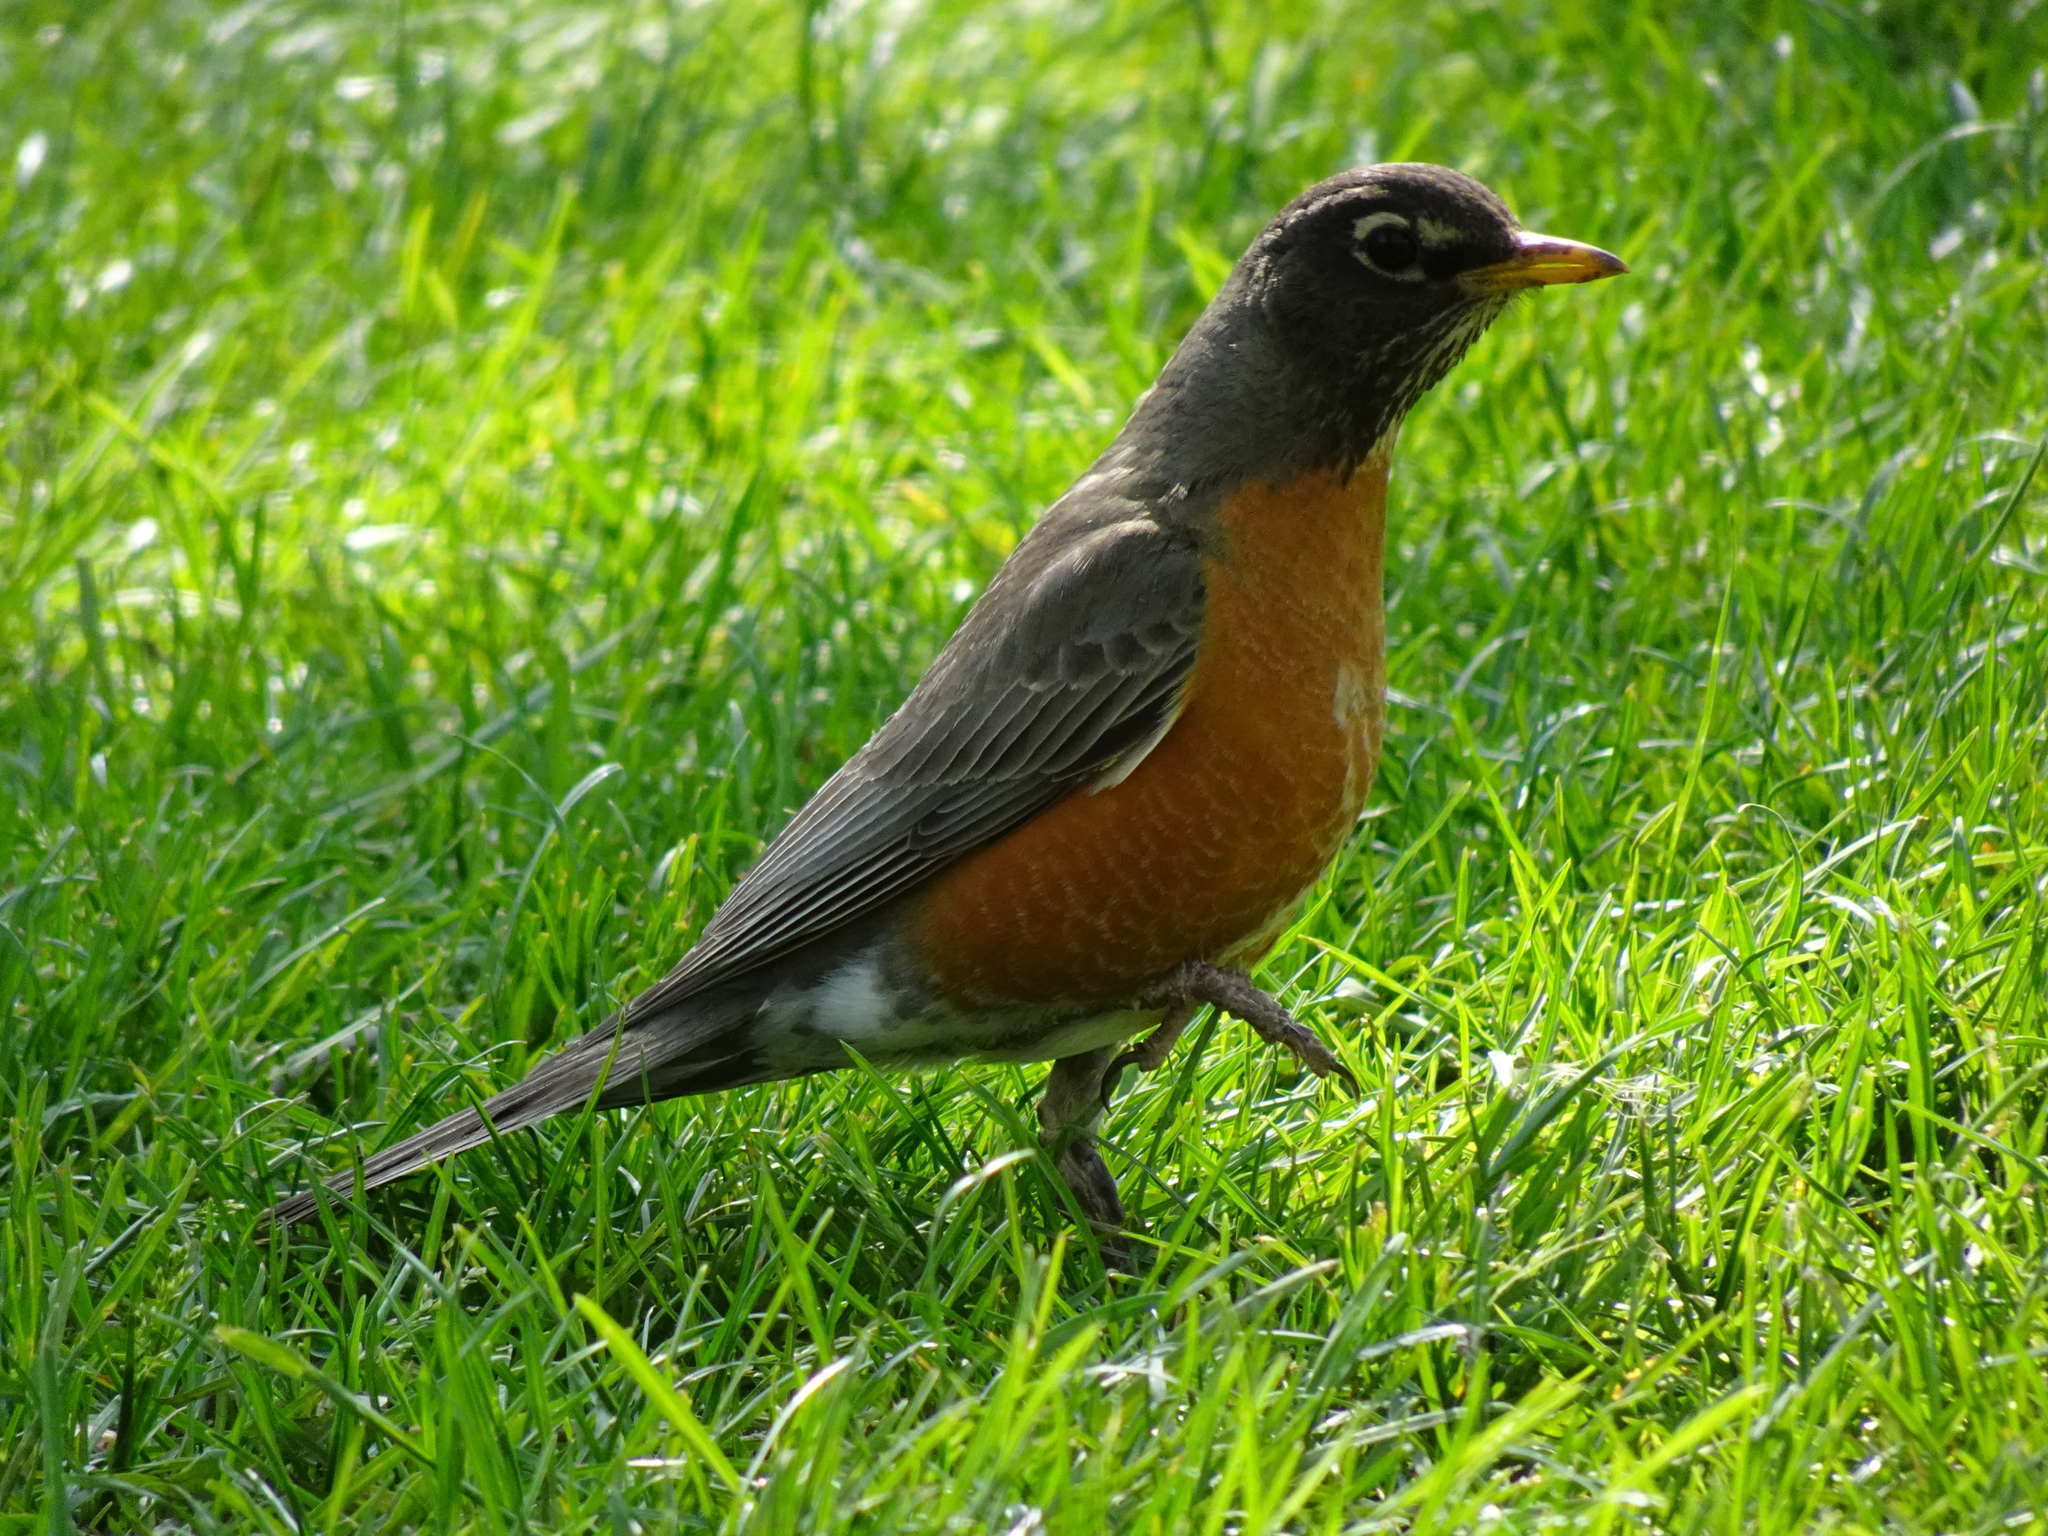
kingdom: Animalia
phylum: Chordata
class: Aves
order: Passeriformes
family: Turdidae
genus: Turdus
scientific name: Turdus migratorius
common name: American robin
